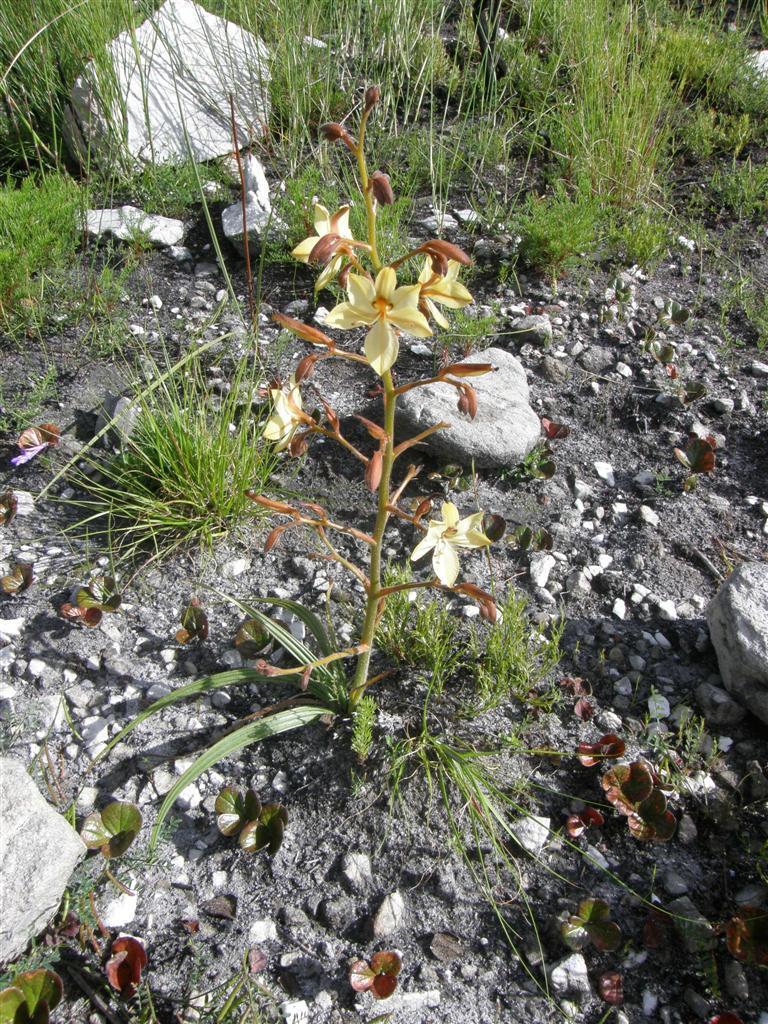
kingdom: Plantae
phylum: Tracheophyta
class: Liliopsida
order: Commelinales
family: Haemodoraceae
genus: Wachendorfia
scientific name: Wachendorfia paniculata
